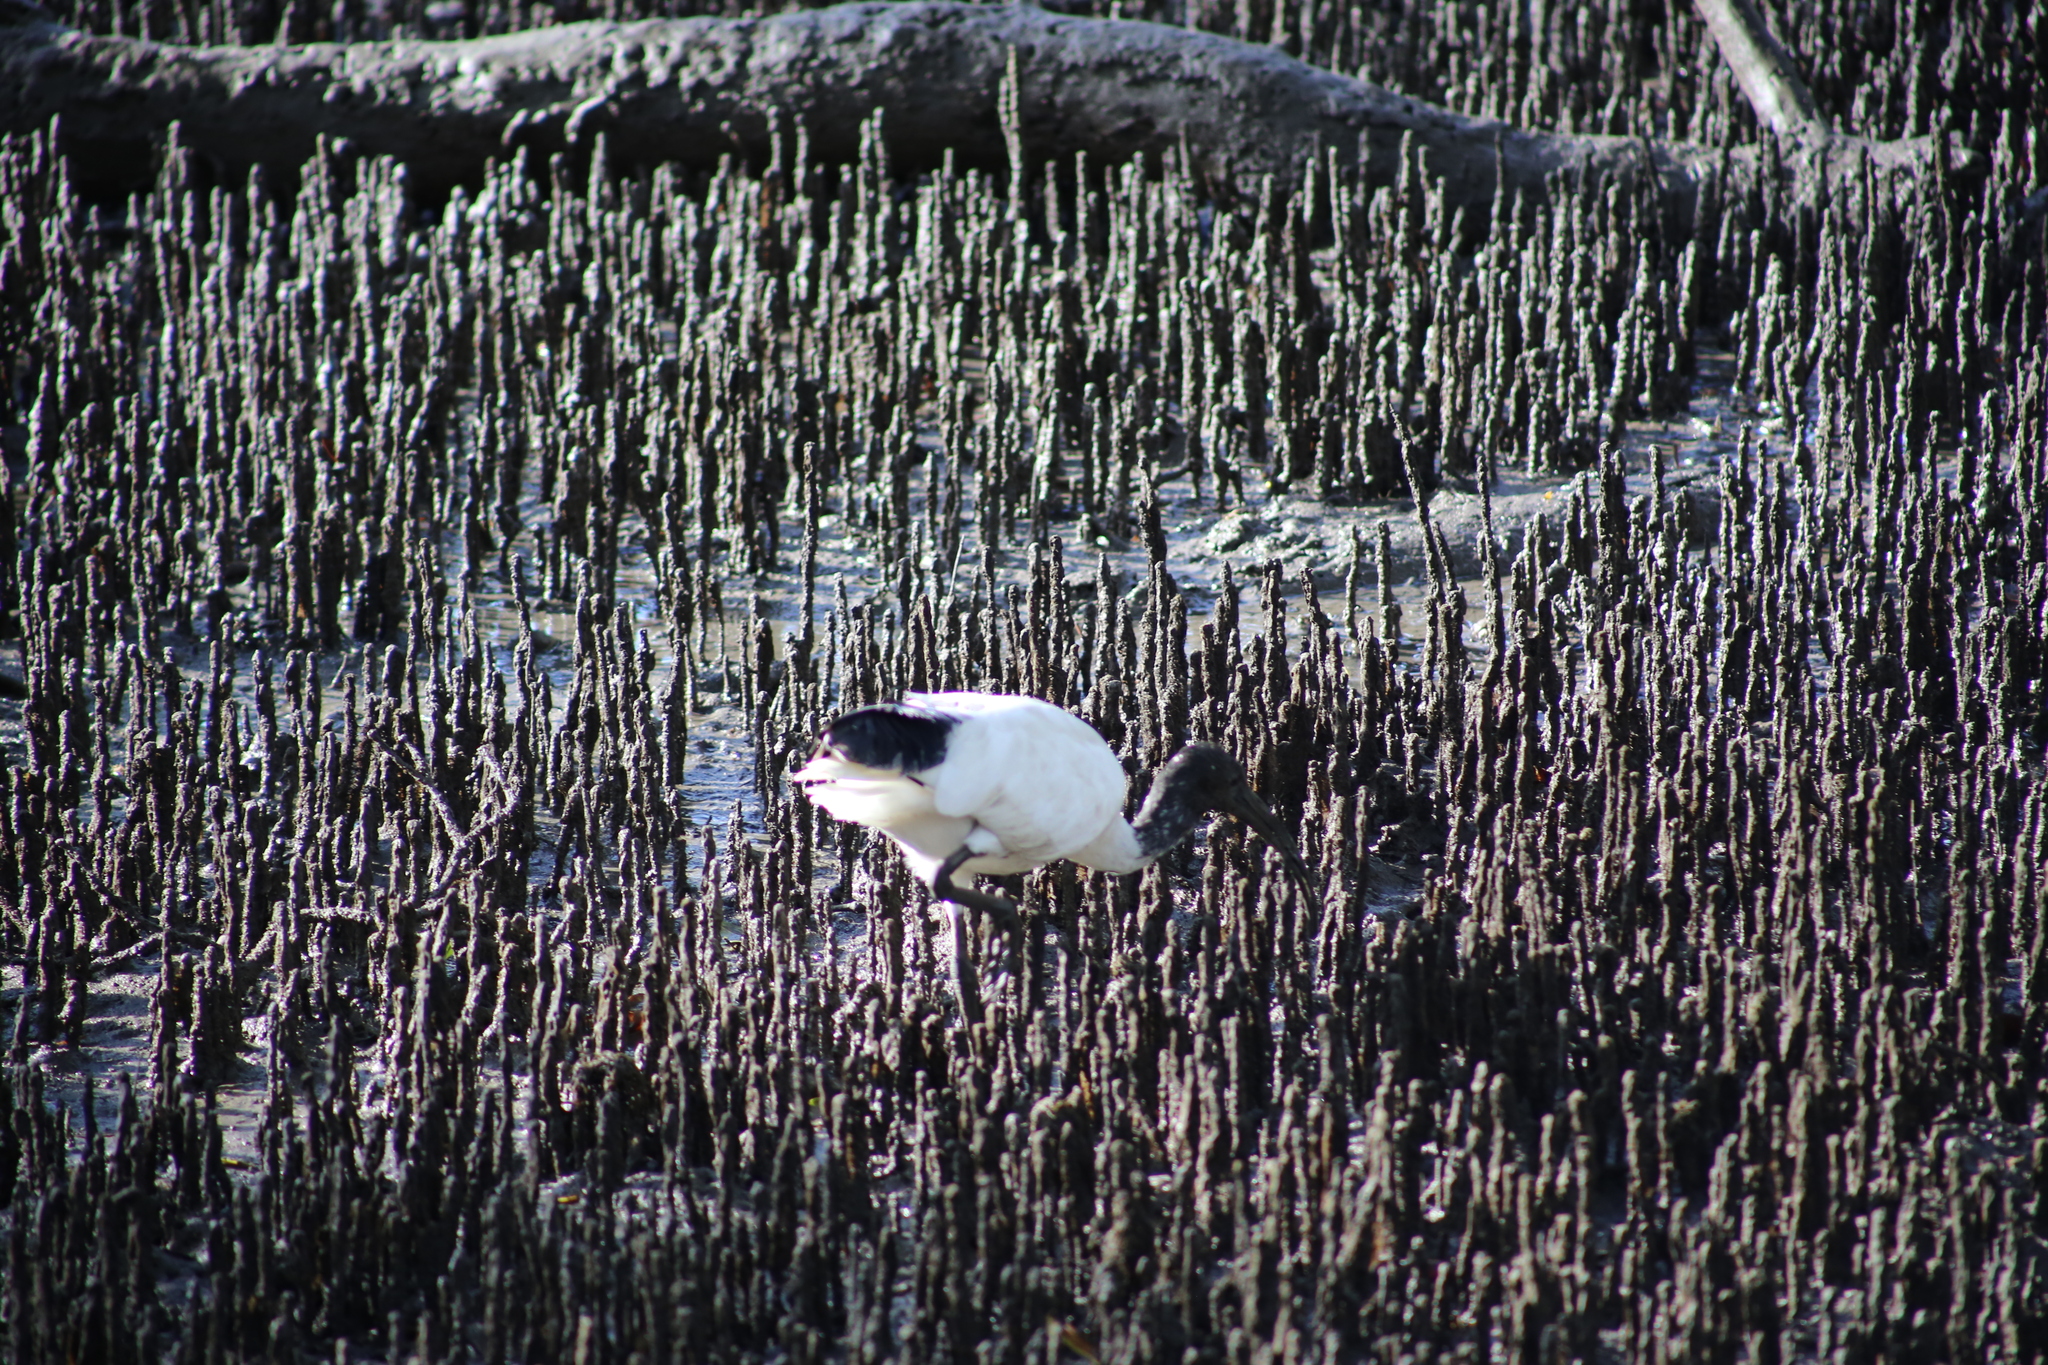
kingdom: Animalia
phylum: Chordata
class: Aves
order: Pelecaniformes
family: Threskiornithidae
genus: Threskiornis
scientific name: Threskiornis molucca
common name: Australian white ibis
